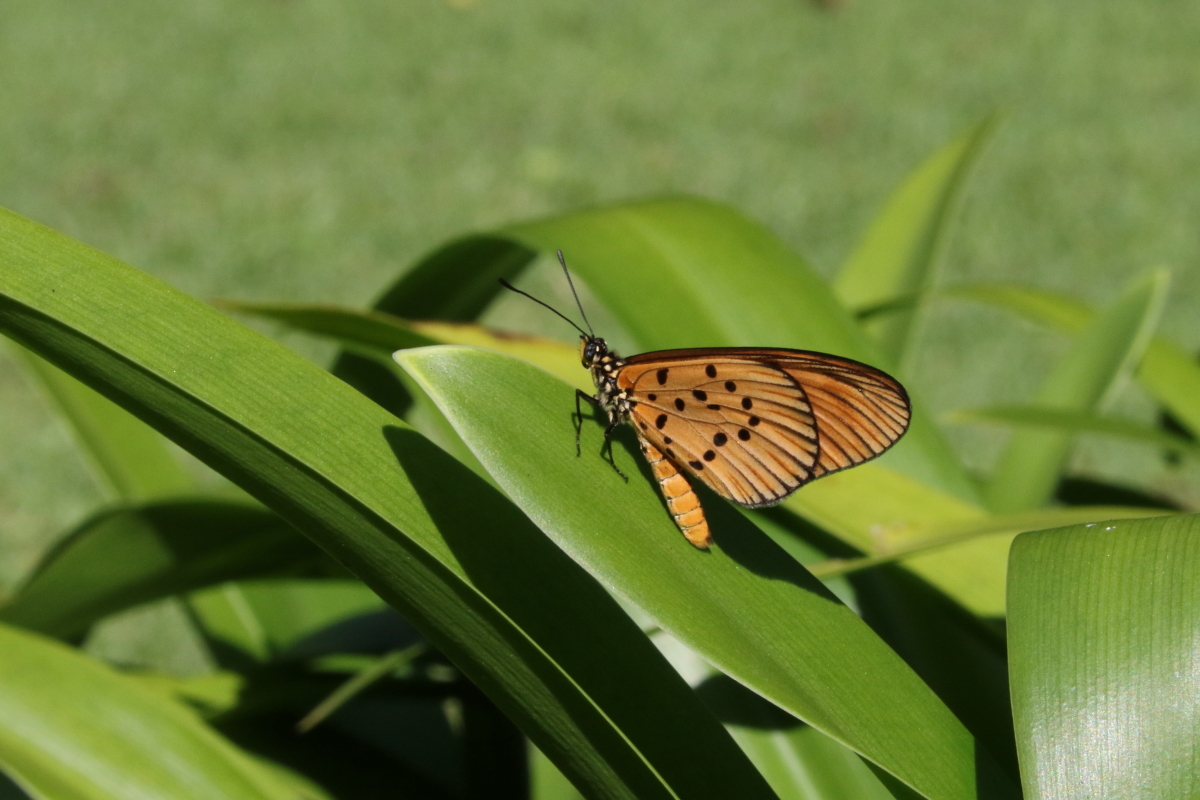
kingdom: Animalia
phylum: Arthropoda
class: Insecta
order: Lepidoptera
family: Nymphalidae
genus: Acraea
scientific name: Acraea Telchinia encedon
